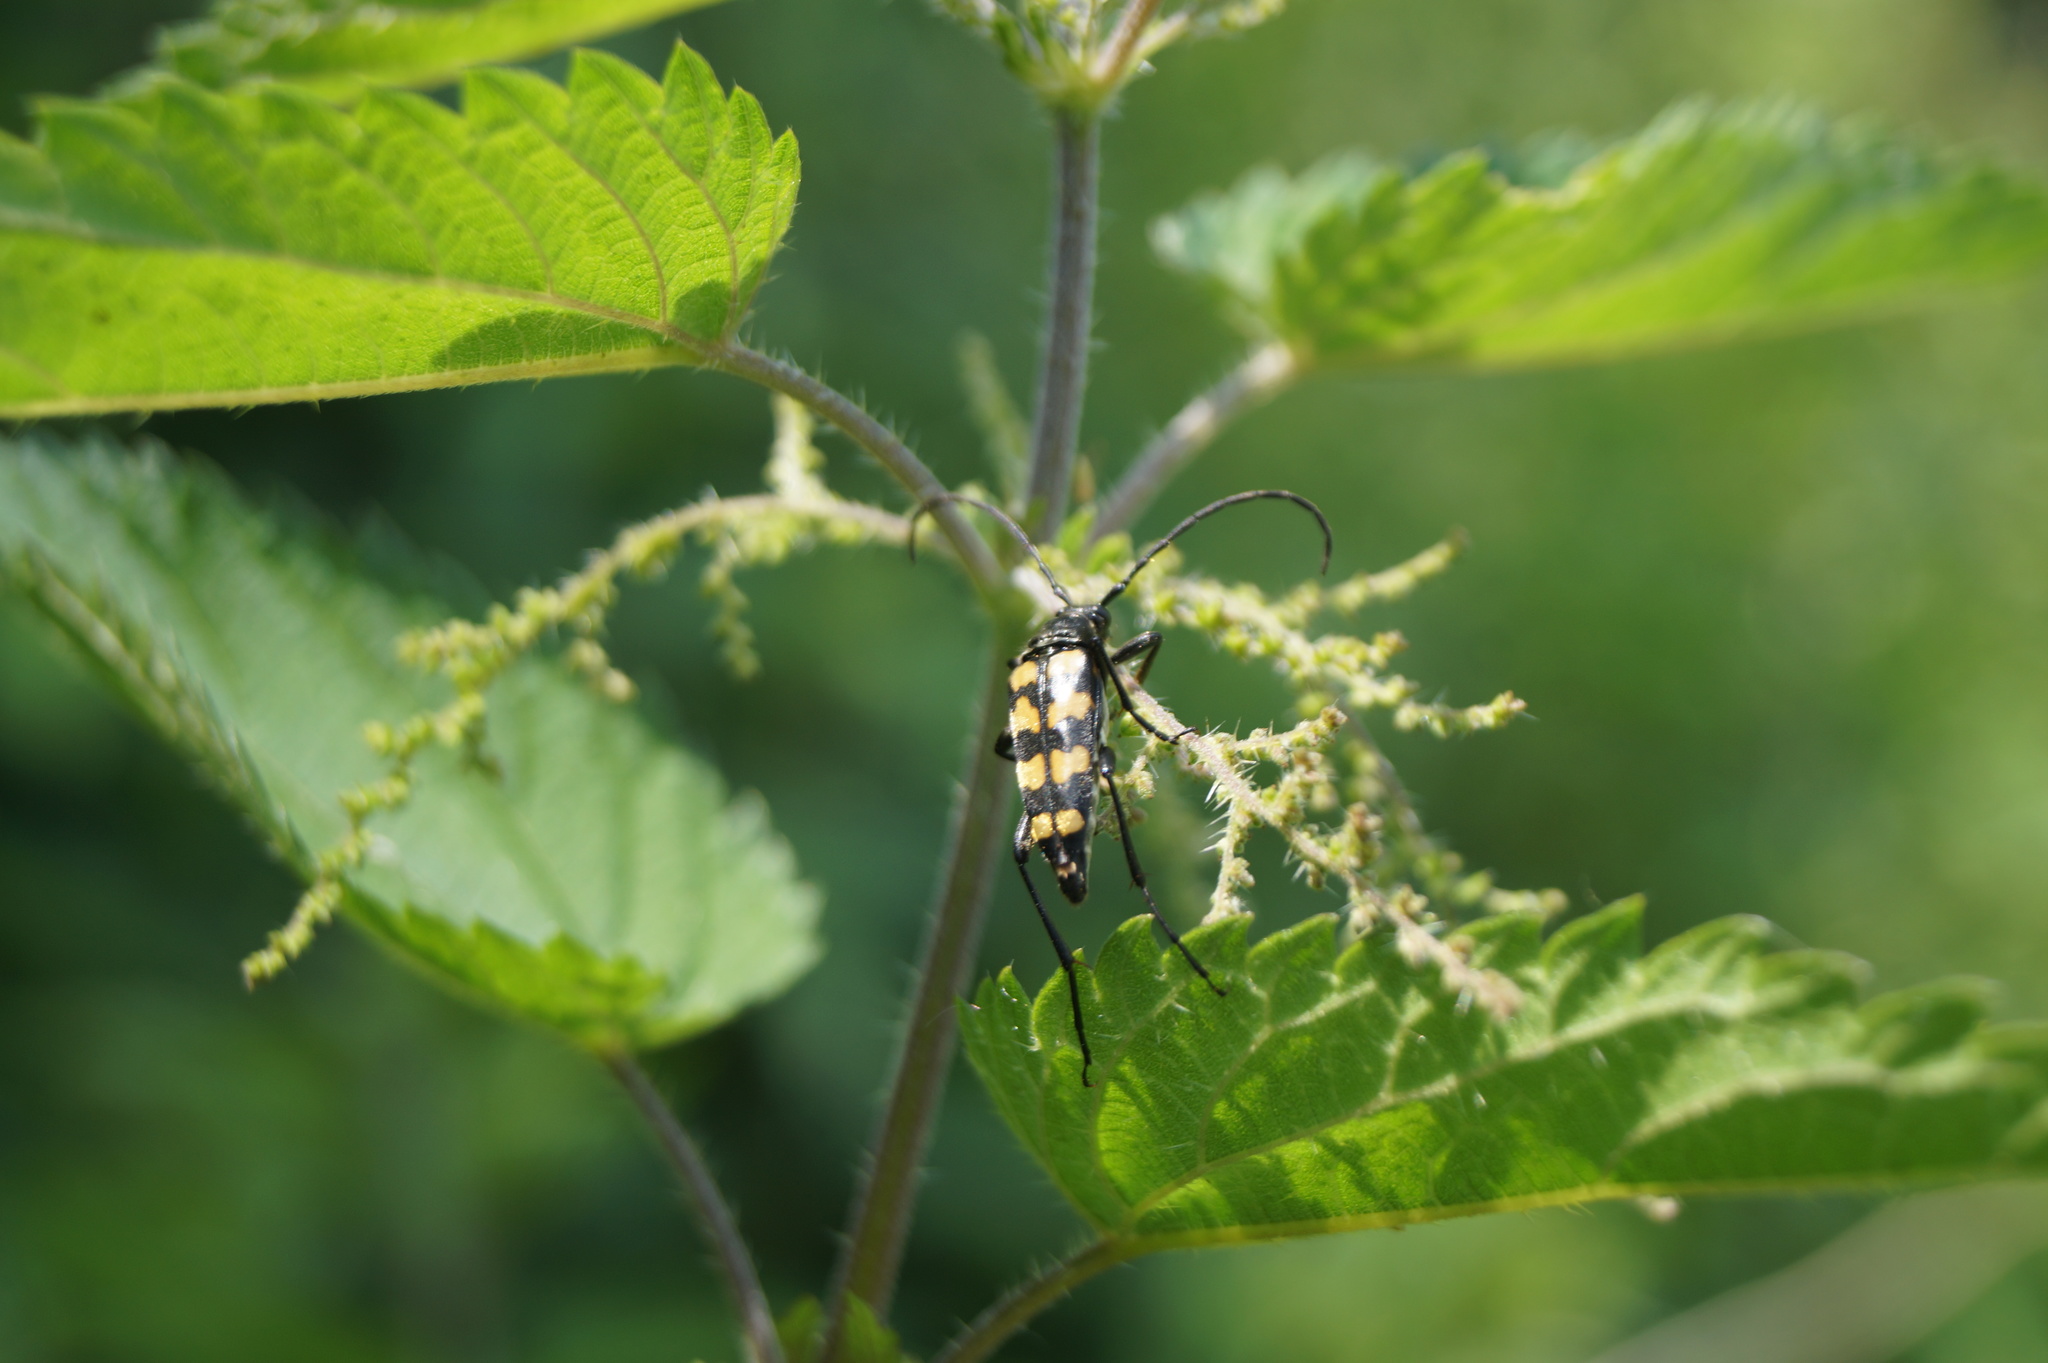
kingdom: Animalia
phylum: Arthropoda
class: Insecta
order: Coleoptera
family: Cerambycidae
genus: Leptura
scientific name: Leptura quadrifasciata
